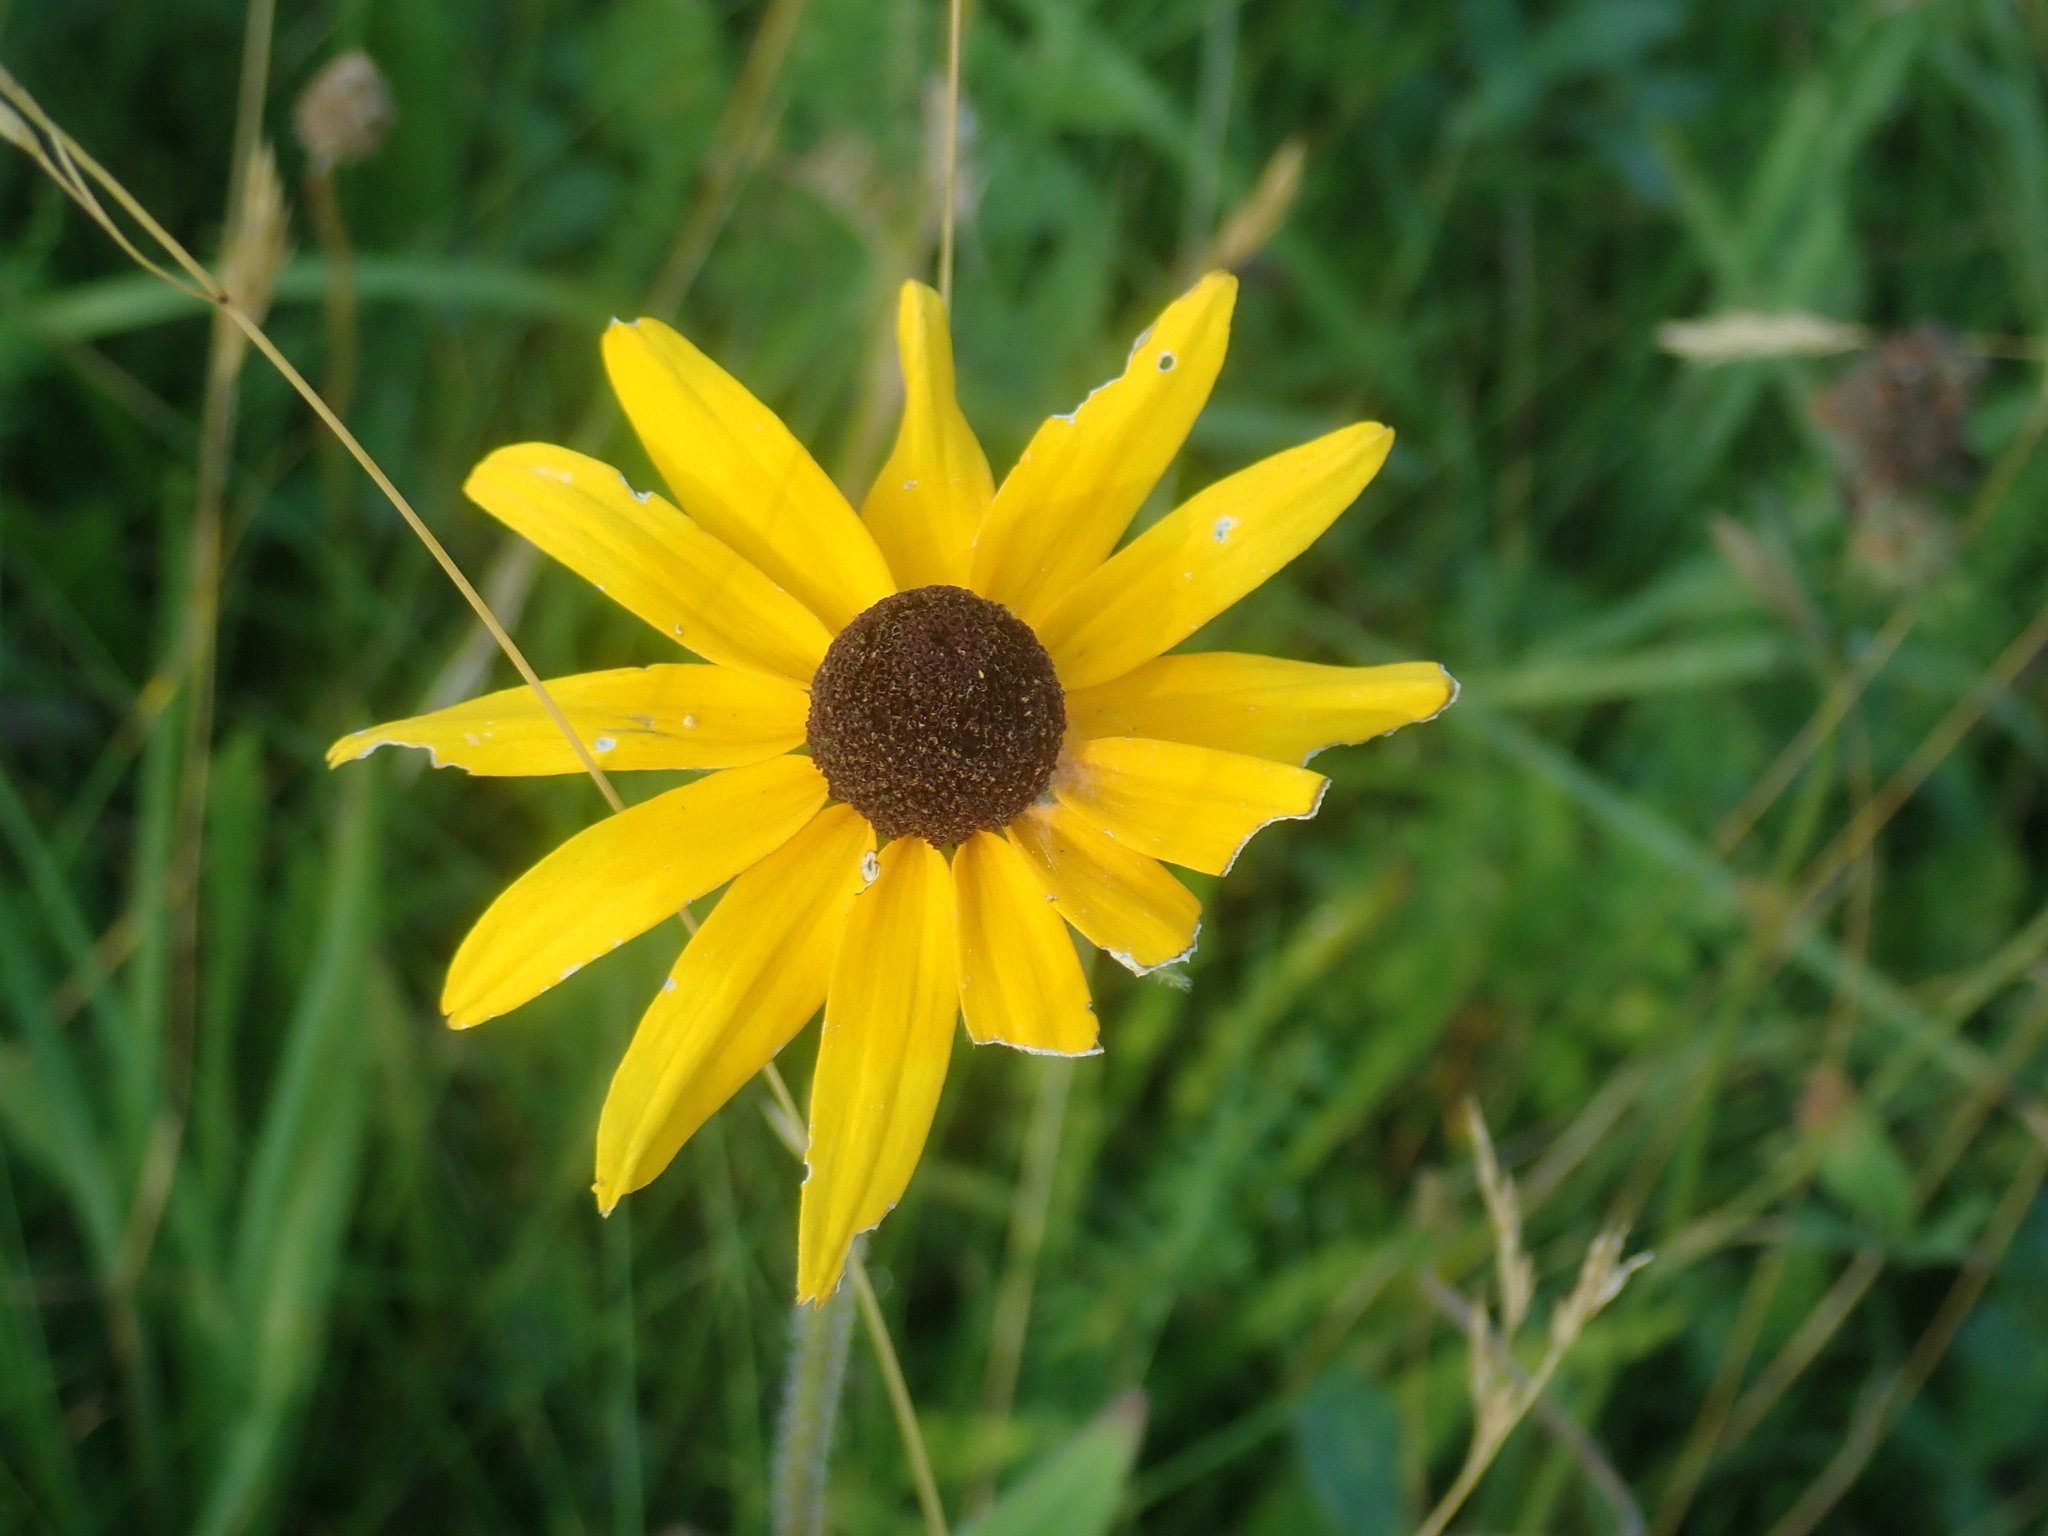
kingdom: Plantae
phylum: Tracheophyta
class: Magnoliopsida
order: Asterales
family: Asteraceae
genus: Rudbeckia
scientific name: Rudbeckia hirta
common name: Black-eyed-susan
